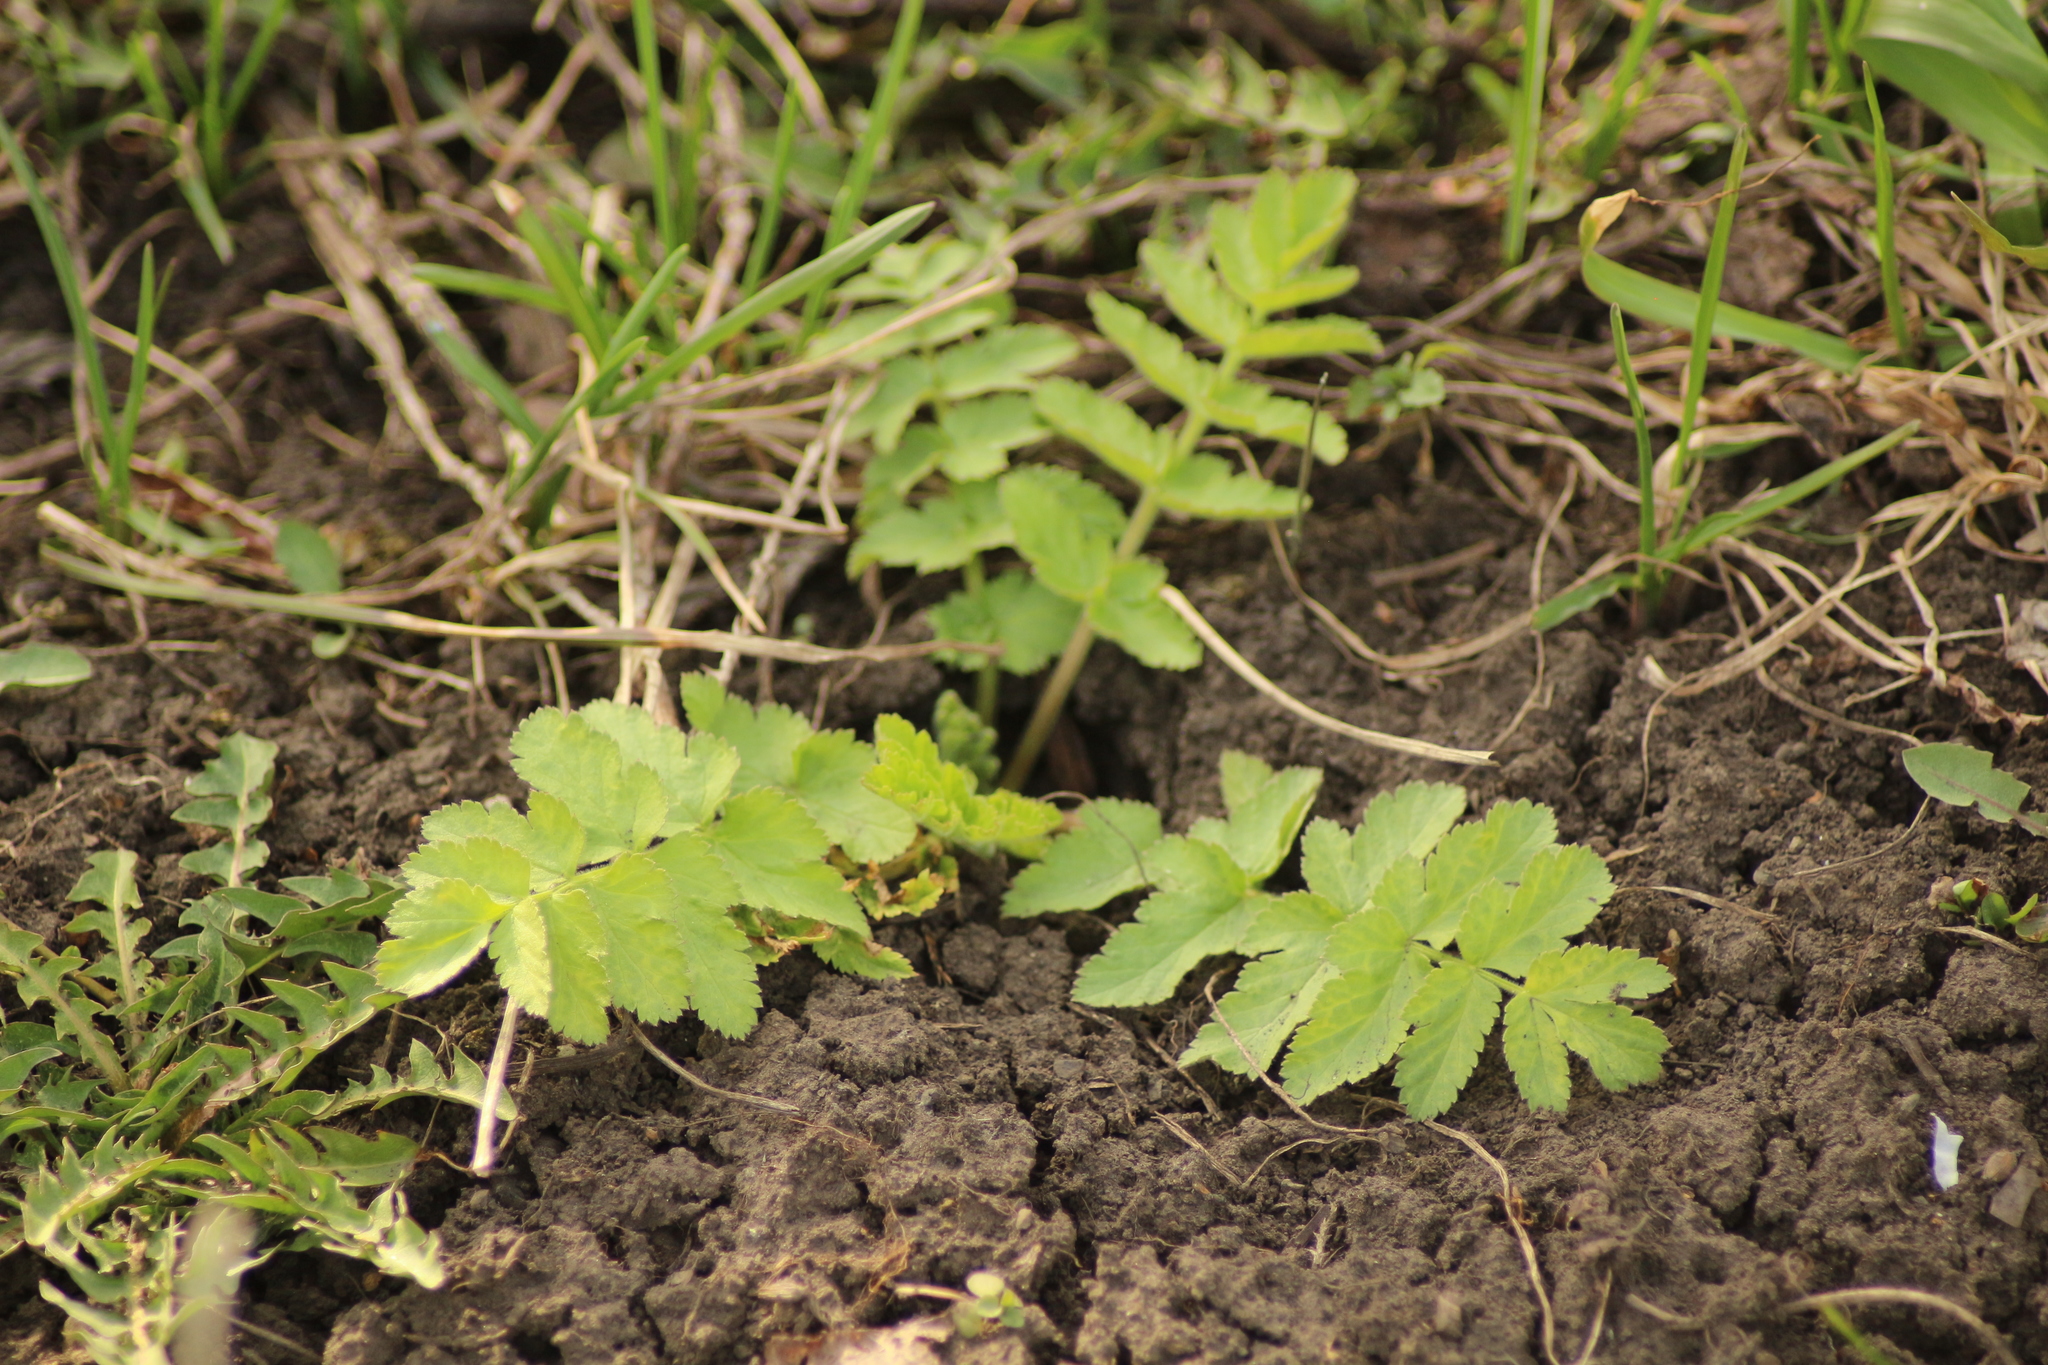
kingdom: Plantae
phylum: Tracheophyta
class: Magnoliopsida
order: Apiales
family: Apiaceae
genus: Pastinaca
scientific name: Pastinaca sativa
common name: Wild parsnip
